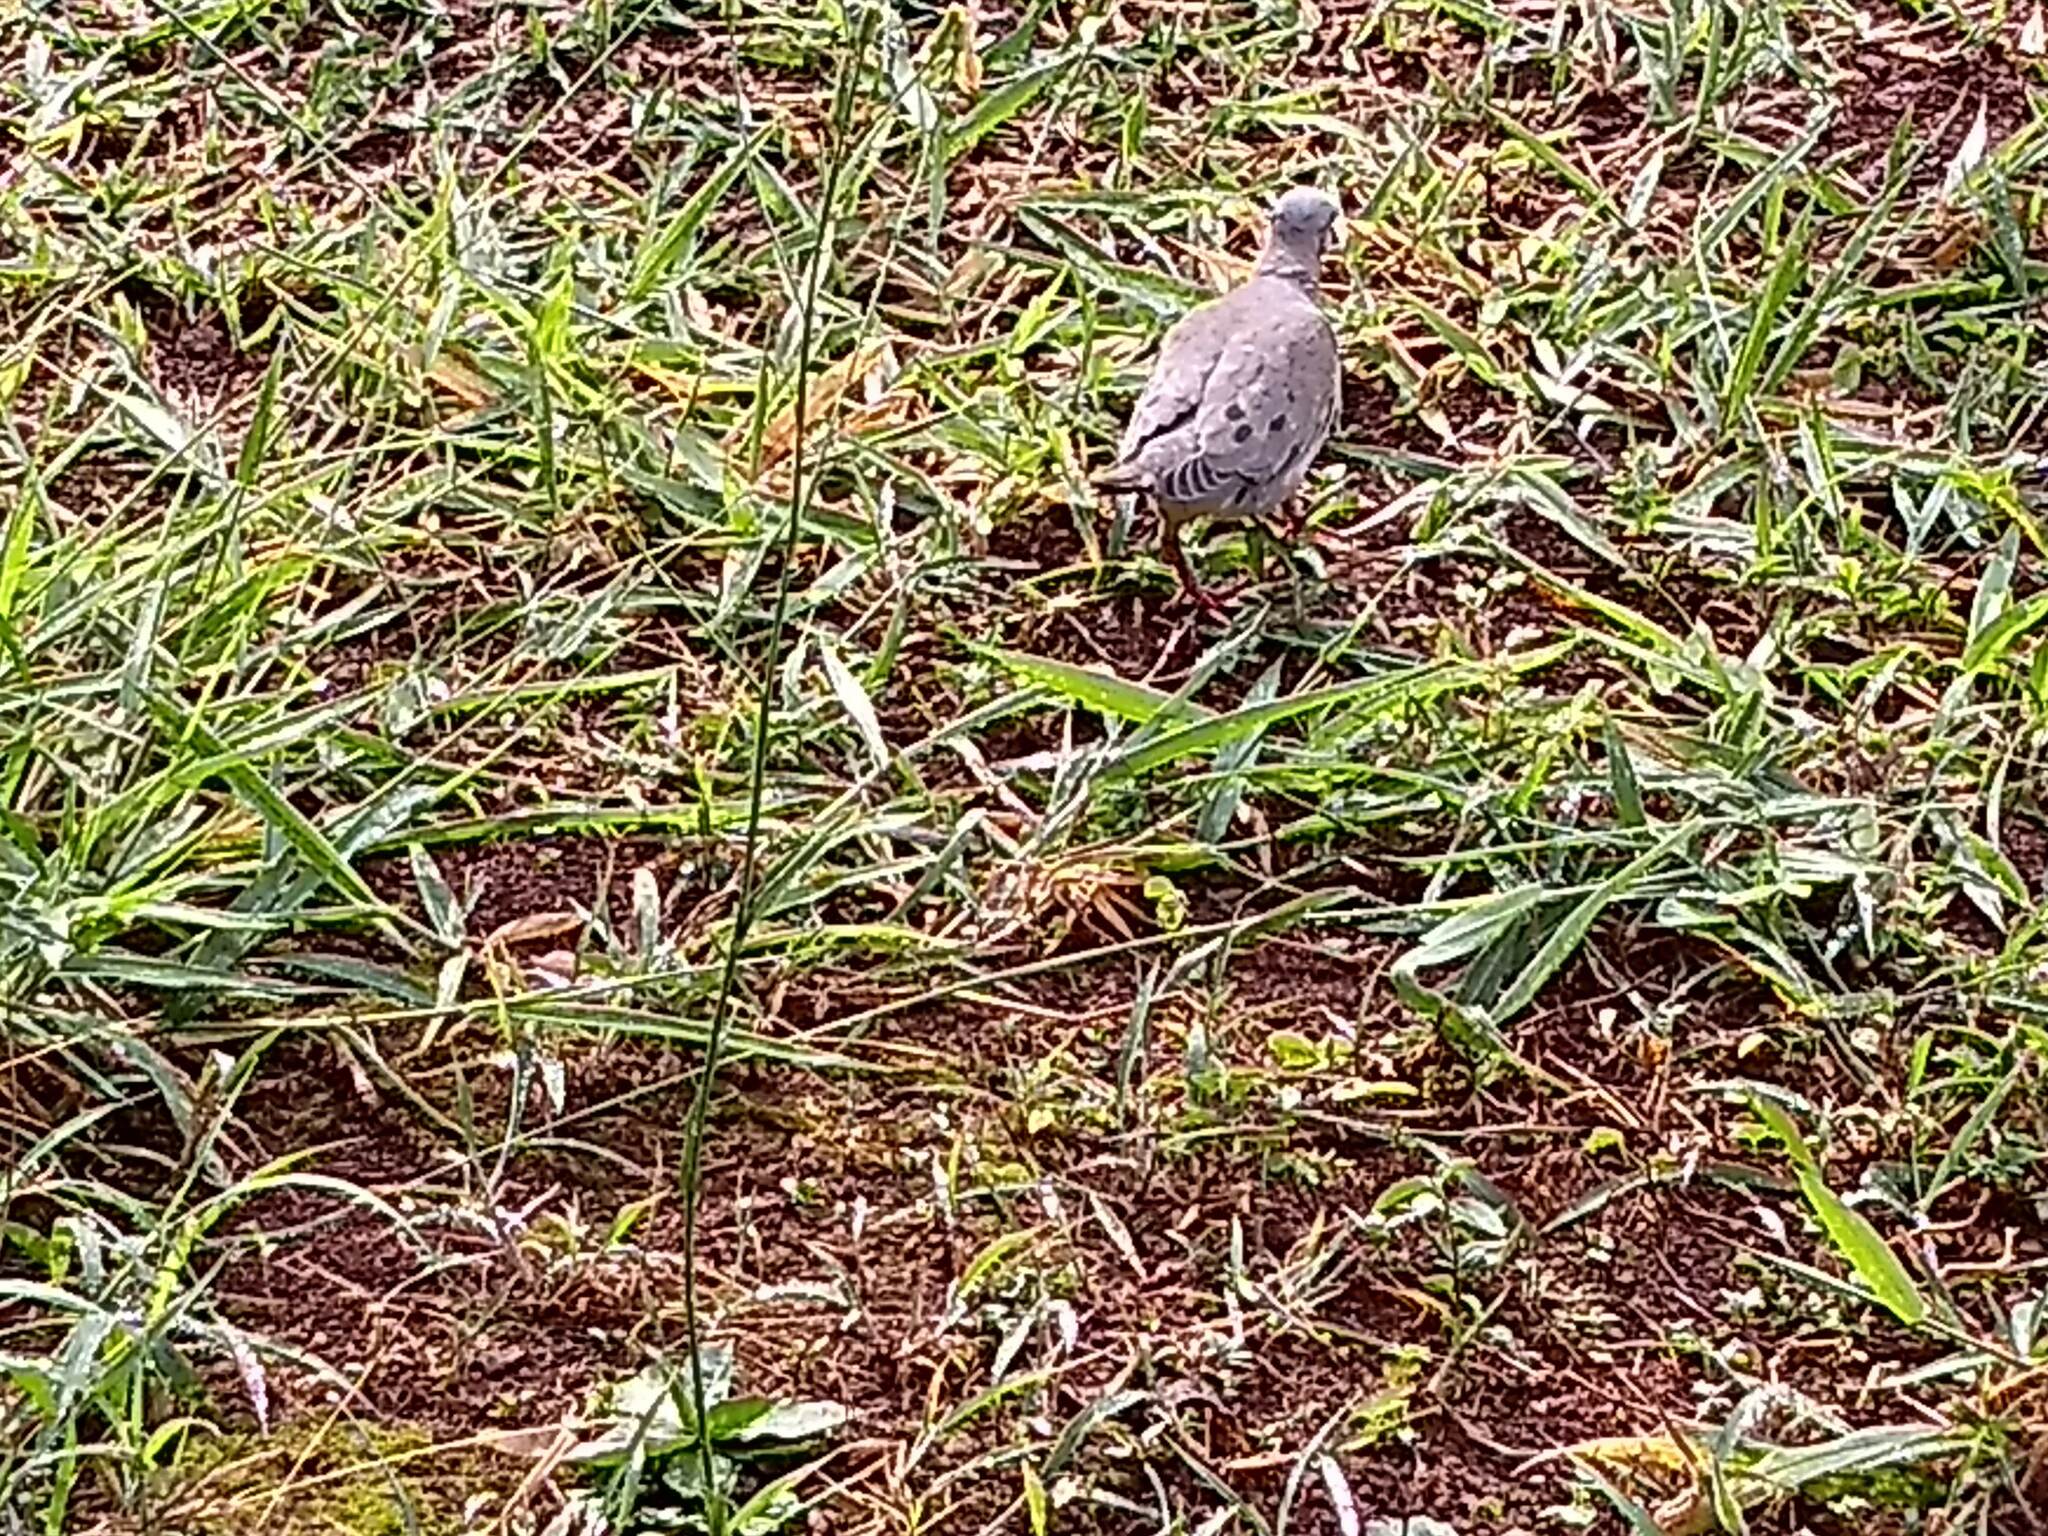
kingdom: Animalia
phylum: Chordata
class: Aves
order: Columbiformes
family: Columbidae
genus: Zenaida
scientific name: Zenaida auriculata
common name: Eared dove
